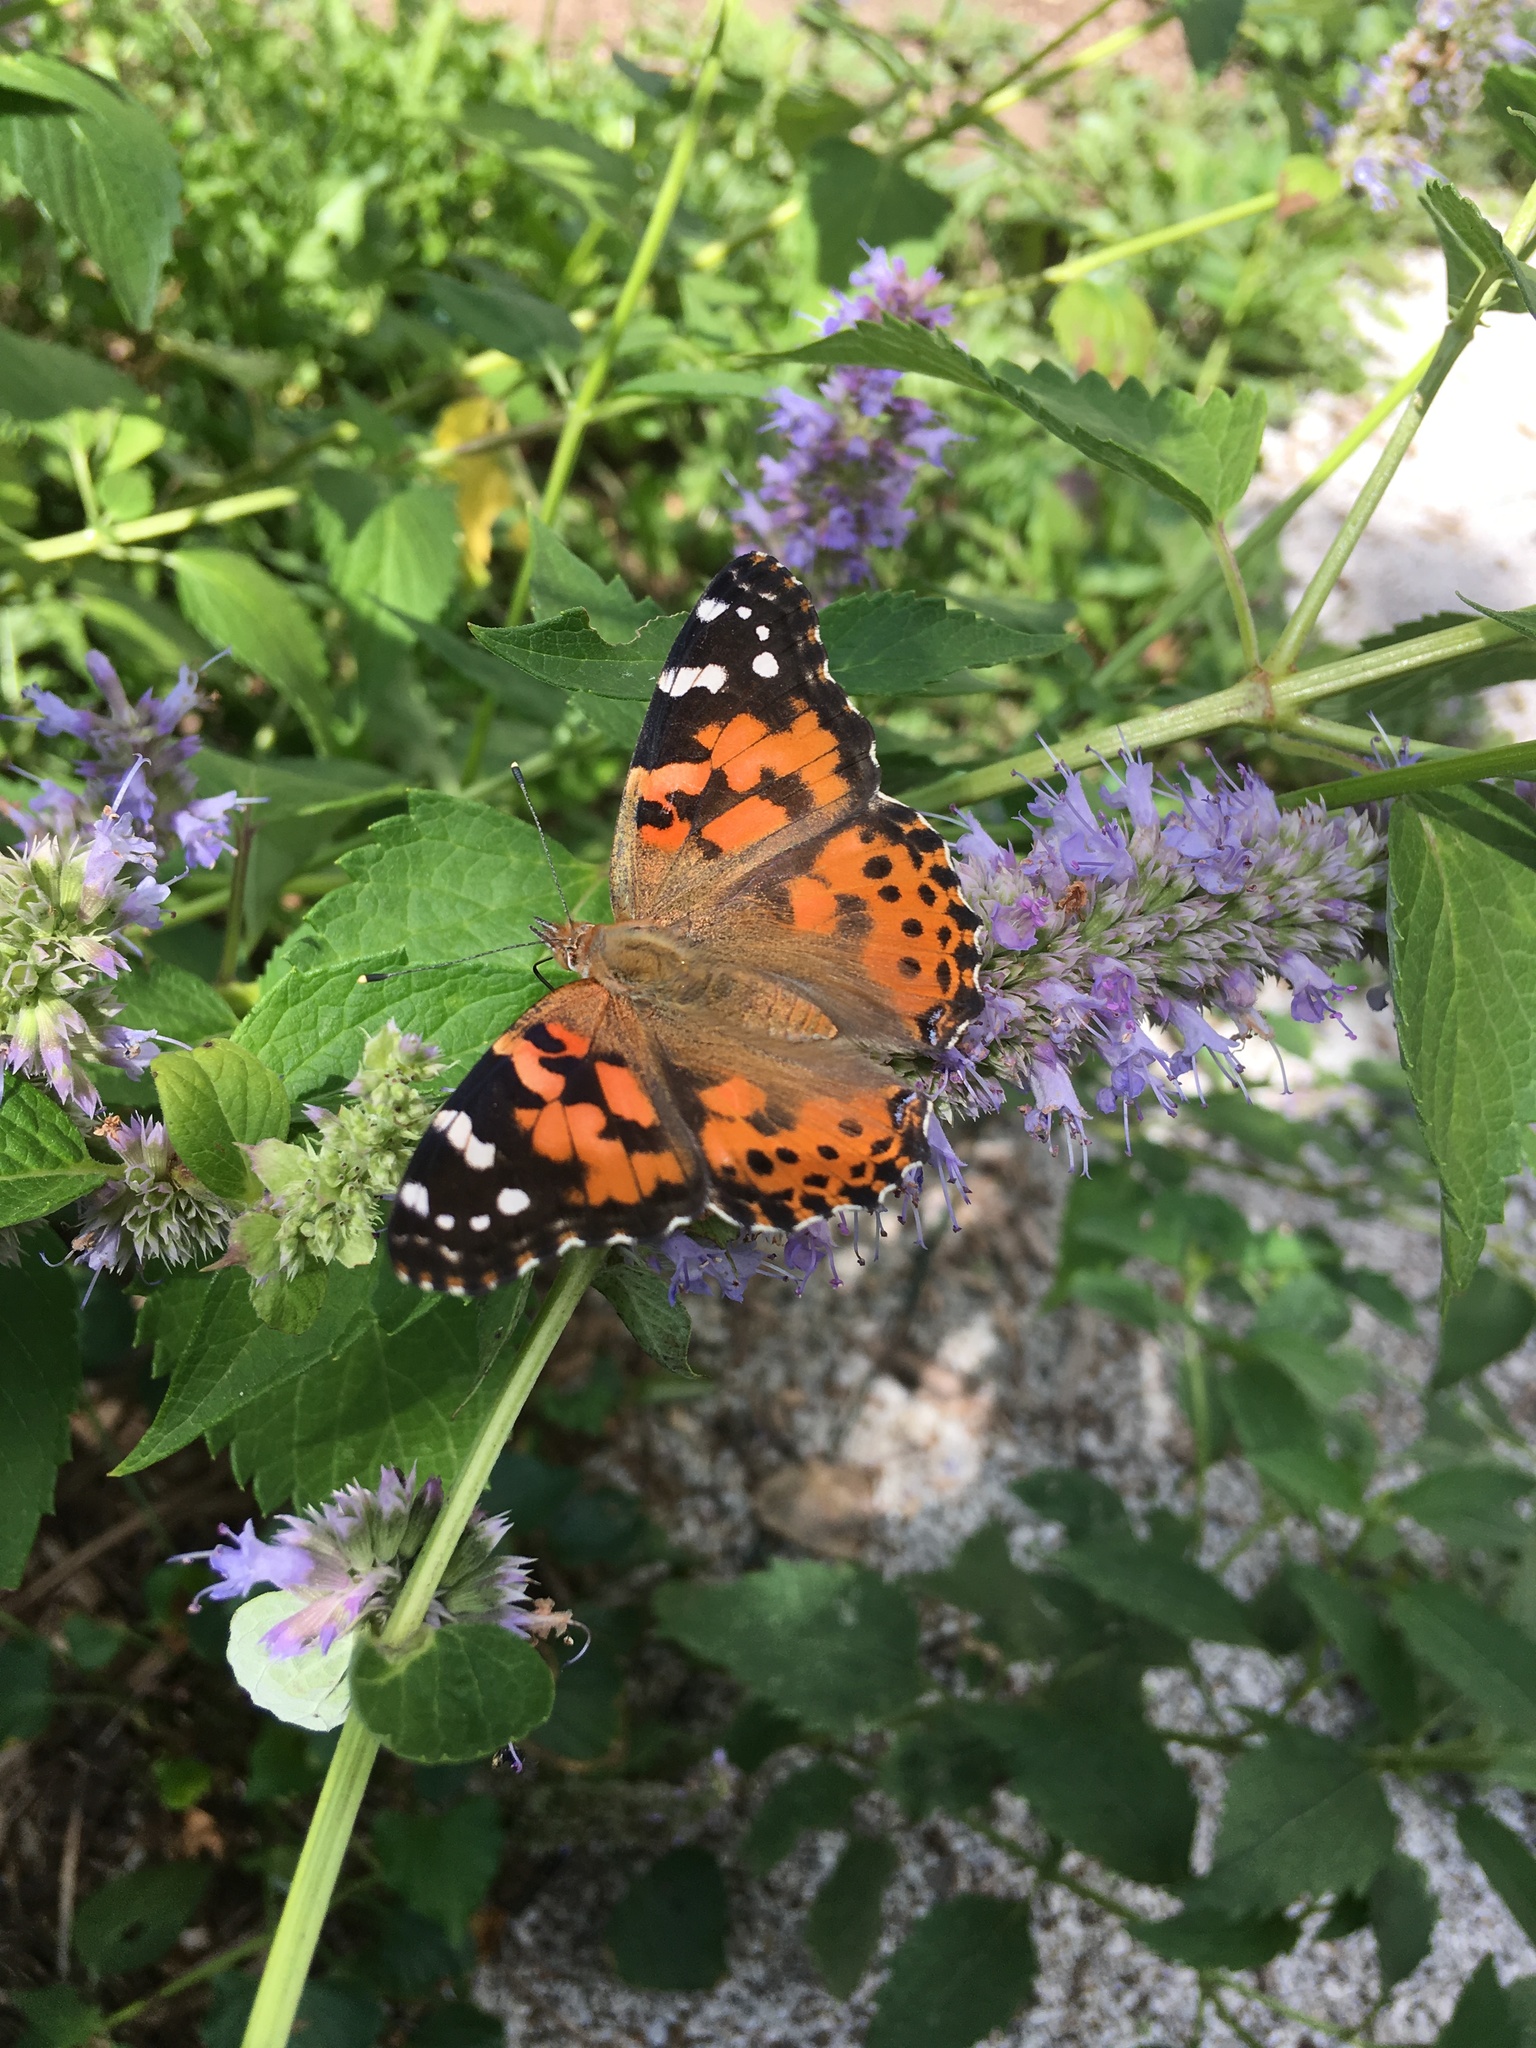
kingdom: Animalia
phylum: Arthropoda
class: Insecta
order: Lepidoptera
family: Nymphalidae
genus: Vanessa
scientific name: Vanessa cardui
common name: Painted lady
